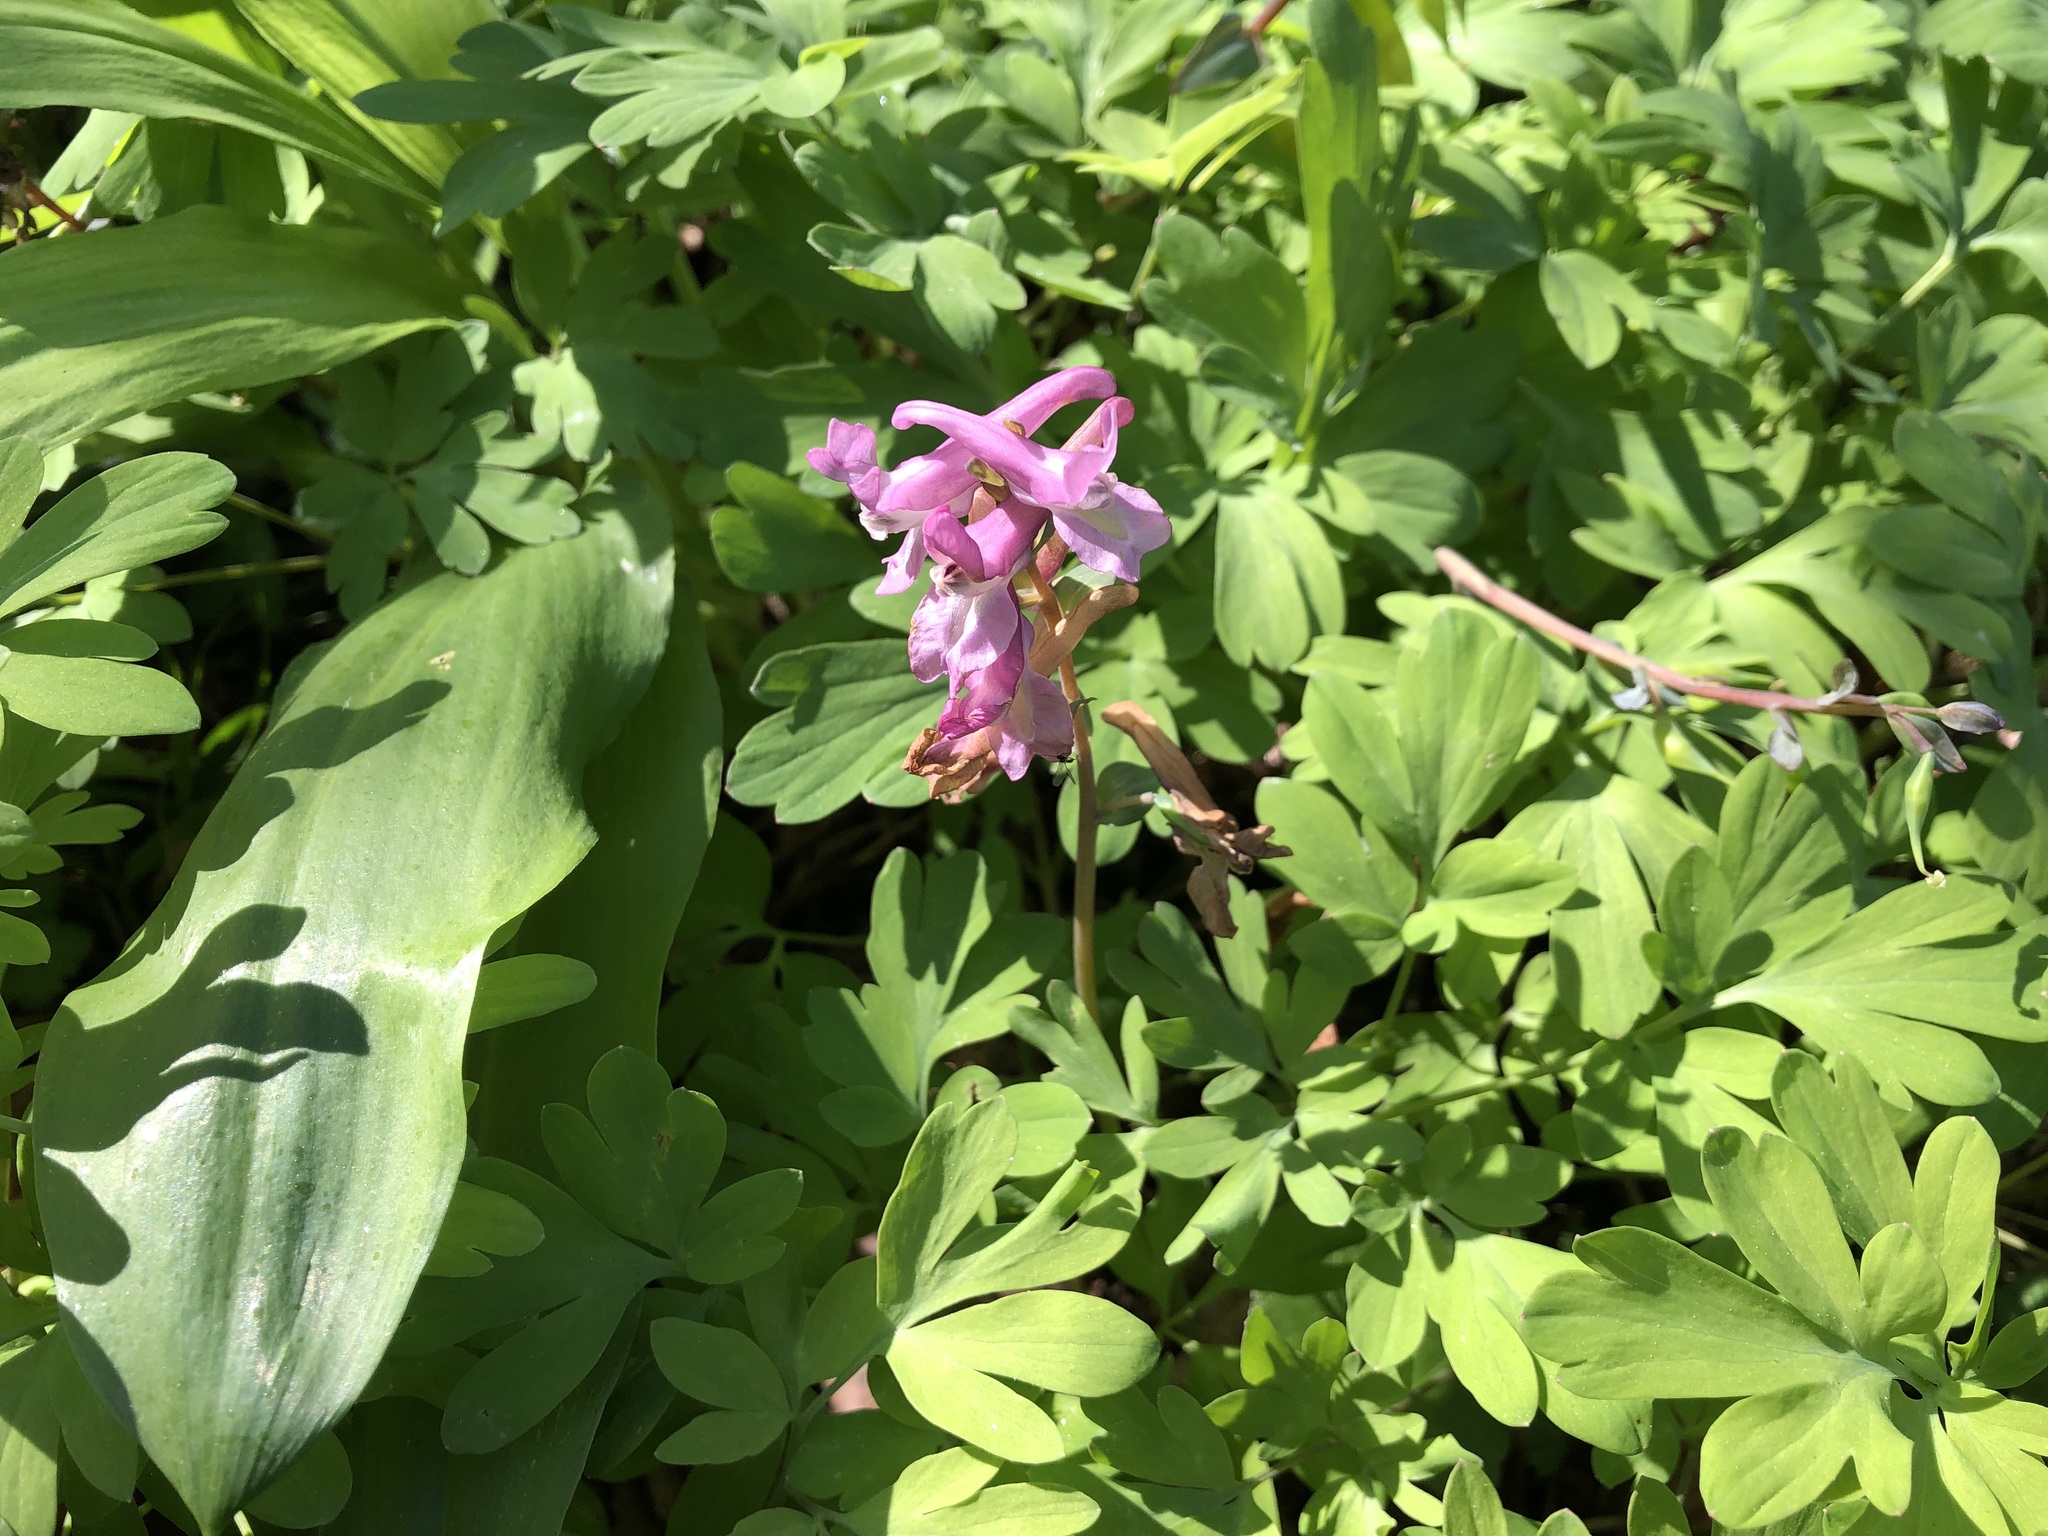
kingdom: Plantae
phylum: Tracheophyta
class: Magnoliopsida
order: Ranunculales
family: Papaveraceae
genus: Corydalis
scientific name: Corydalis cava
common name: Hollowroot
